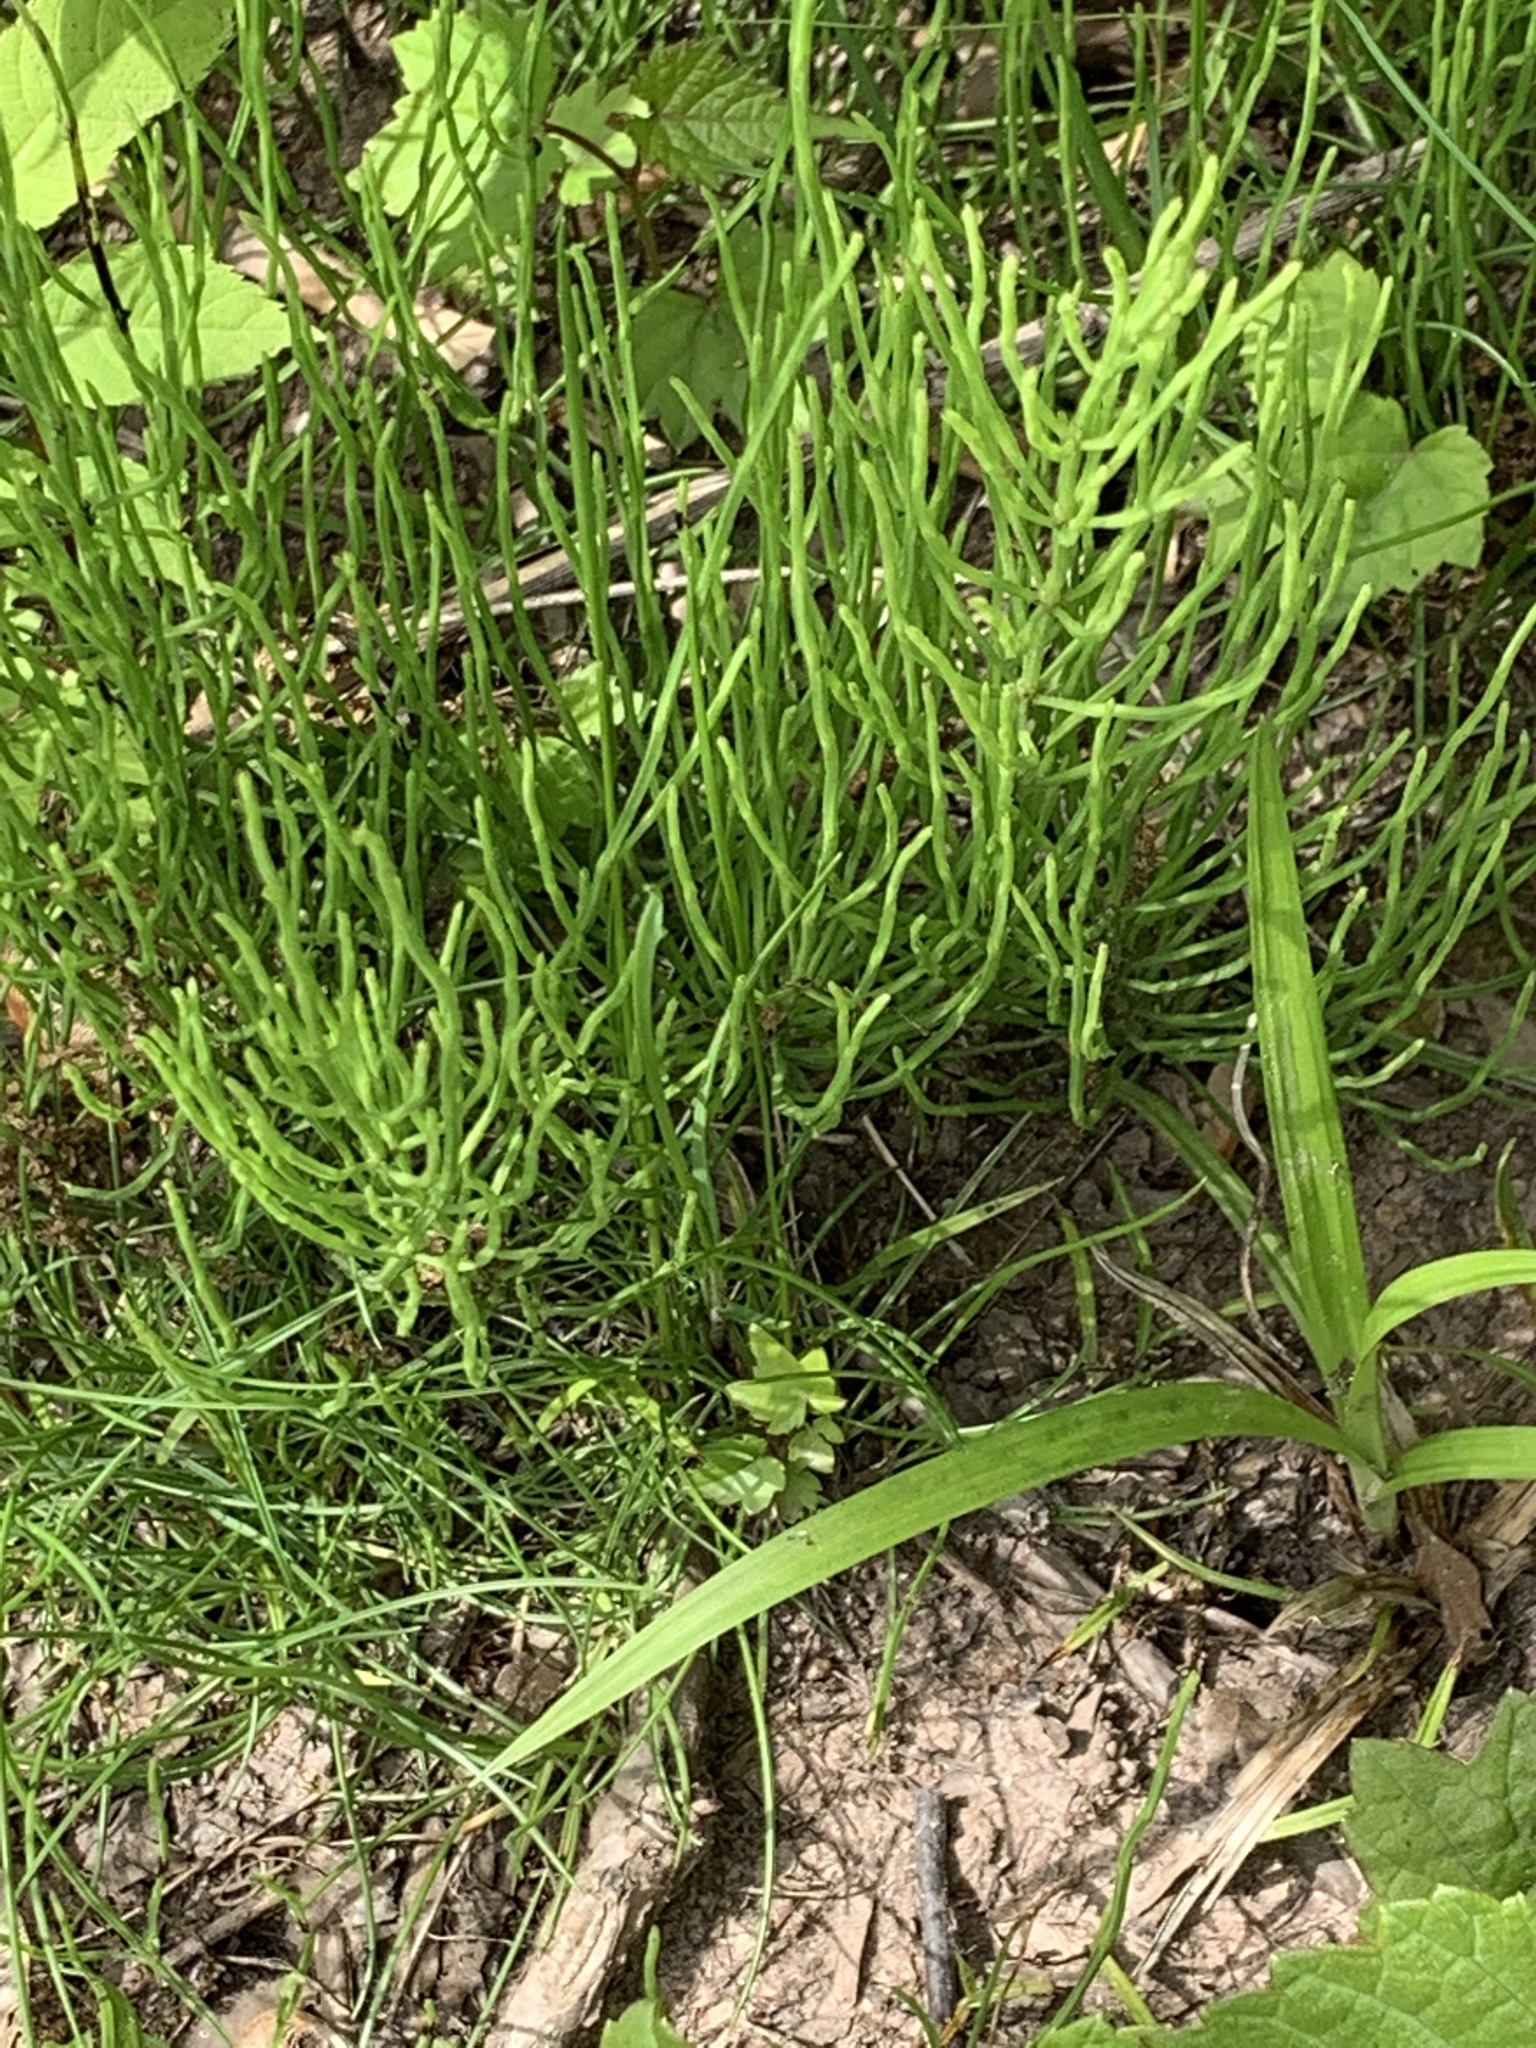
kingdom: Plantae
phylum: Tracheophyta
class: Polypodiopsida
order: Equisetales
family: Equisetaceae
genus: Equisetum
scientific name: Equisetum arvense
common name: Field horsetail
